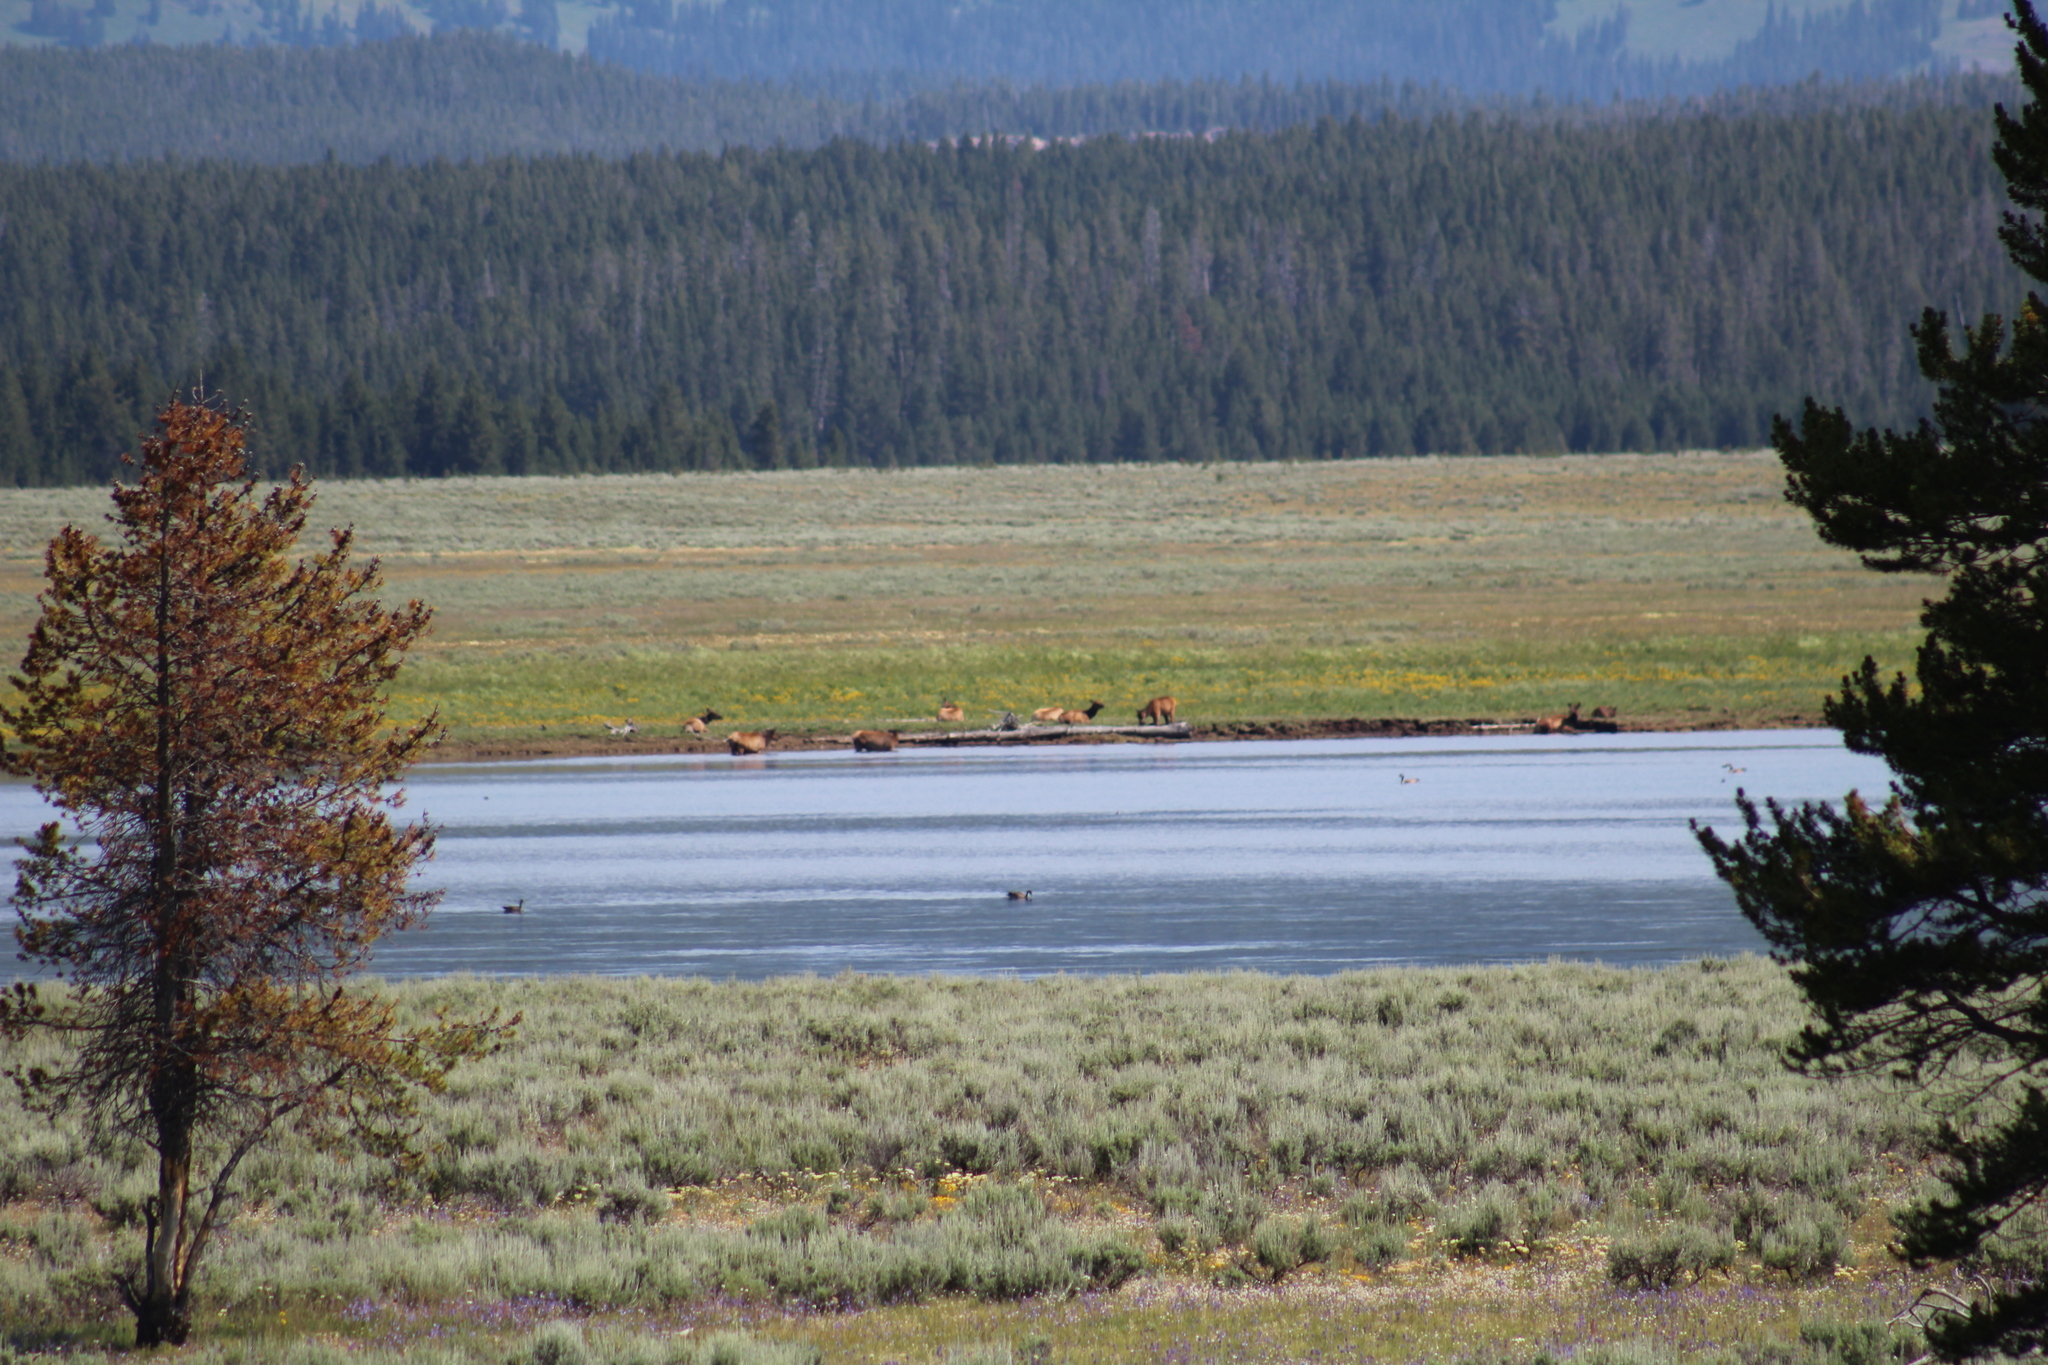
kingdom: Animalia
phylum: Chordata
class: Mammalia
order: Artiodactyla
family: Cervidae
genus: Cervus
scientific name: Cervus elaphus
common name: Red deer
